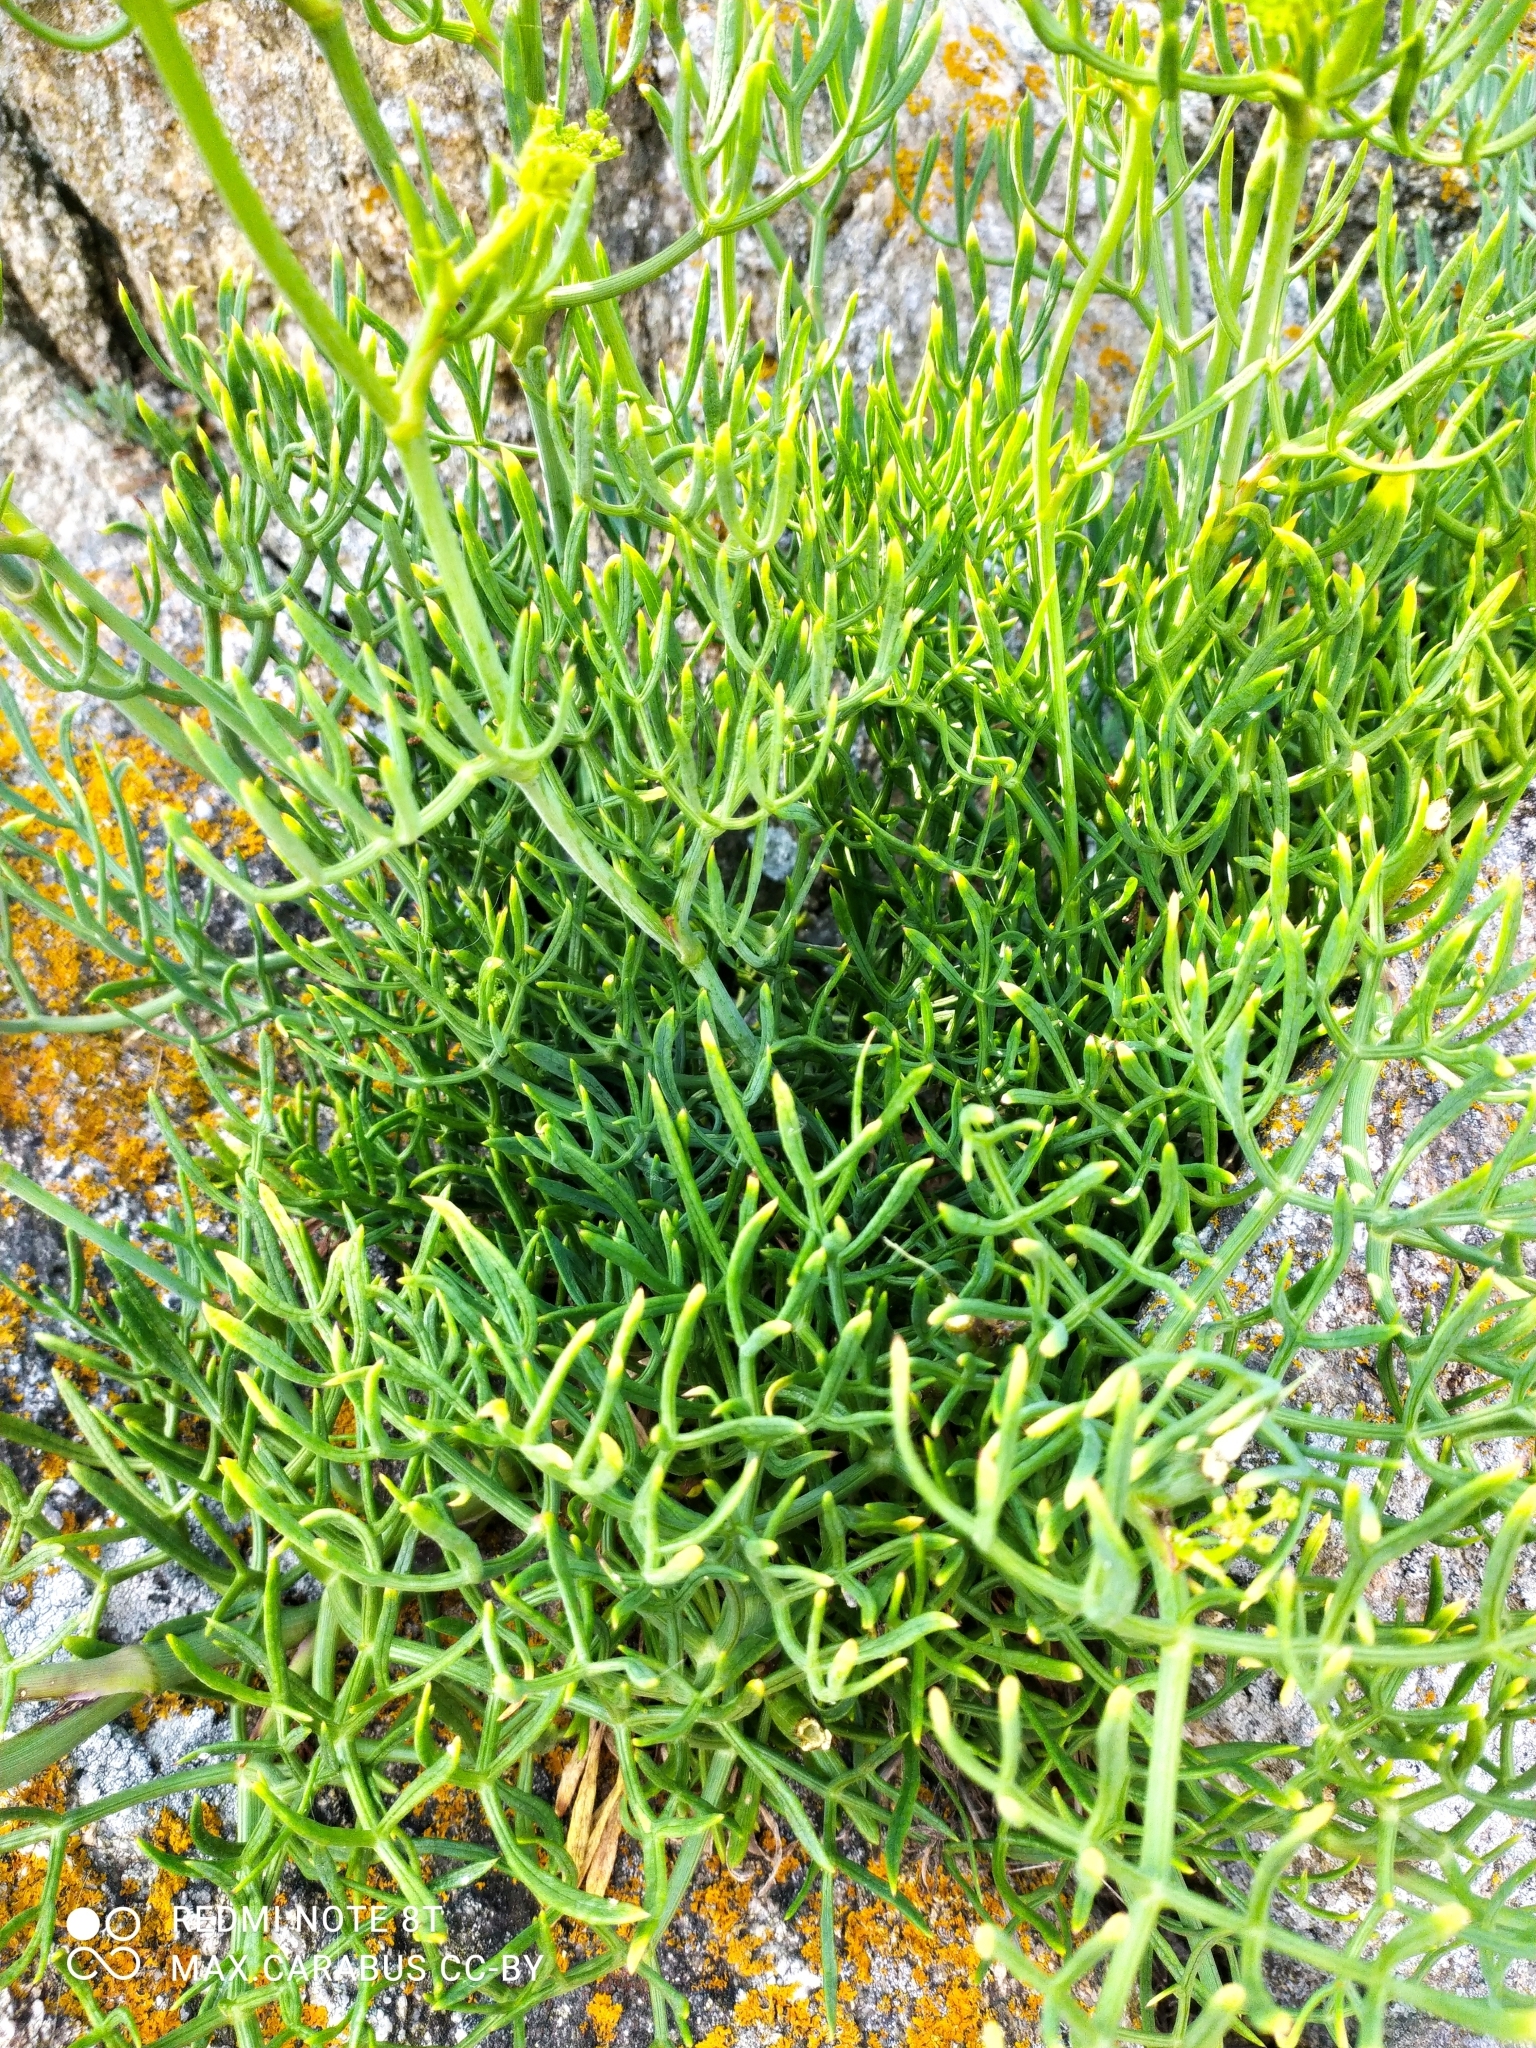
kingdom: Plantae
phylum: Tracheophyta
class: Magnoliopsida
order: Apiales
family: Apiaceae
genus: Crithmum
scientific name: Crithmum maritimum
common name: Rock samphire
